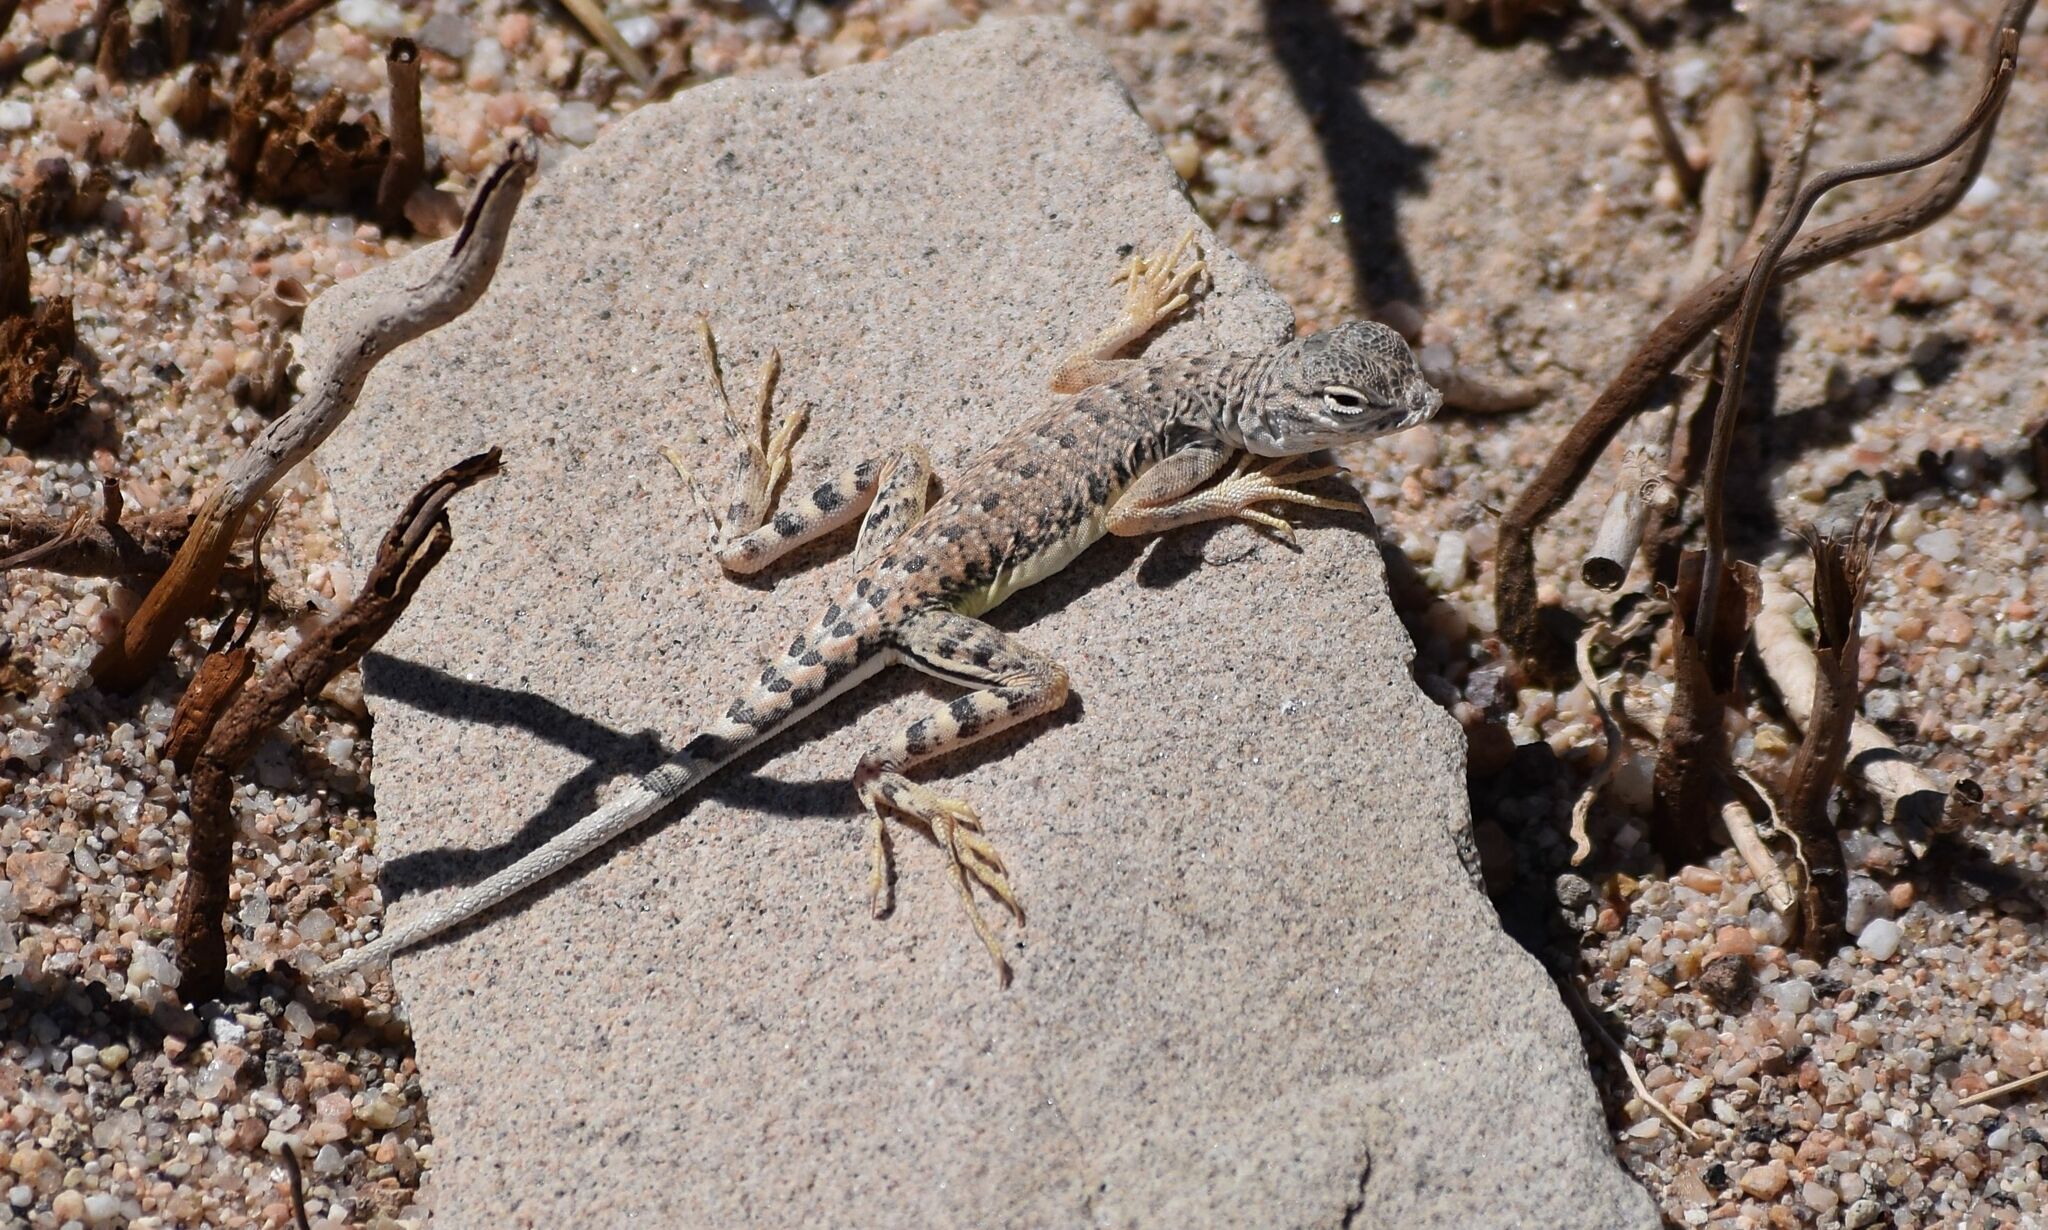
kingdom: Animalia
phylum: Chordata
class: Squamata
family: Phrynosomatidae
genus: Callisaurus
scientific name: Callisaurus draconoides
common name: Zebra-tailed lizard
